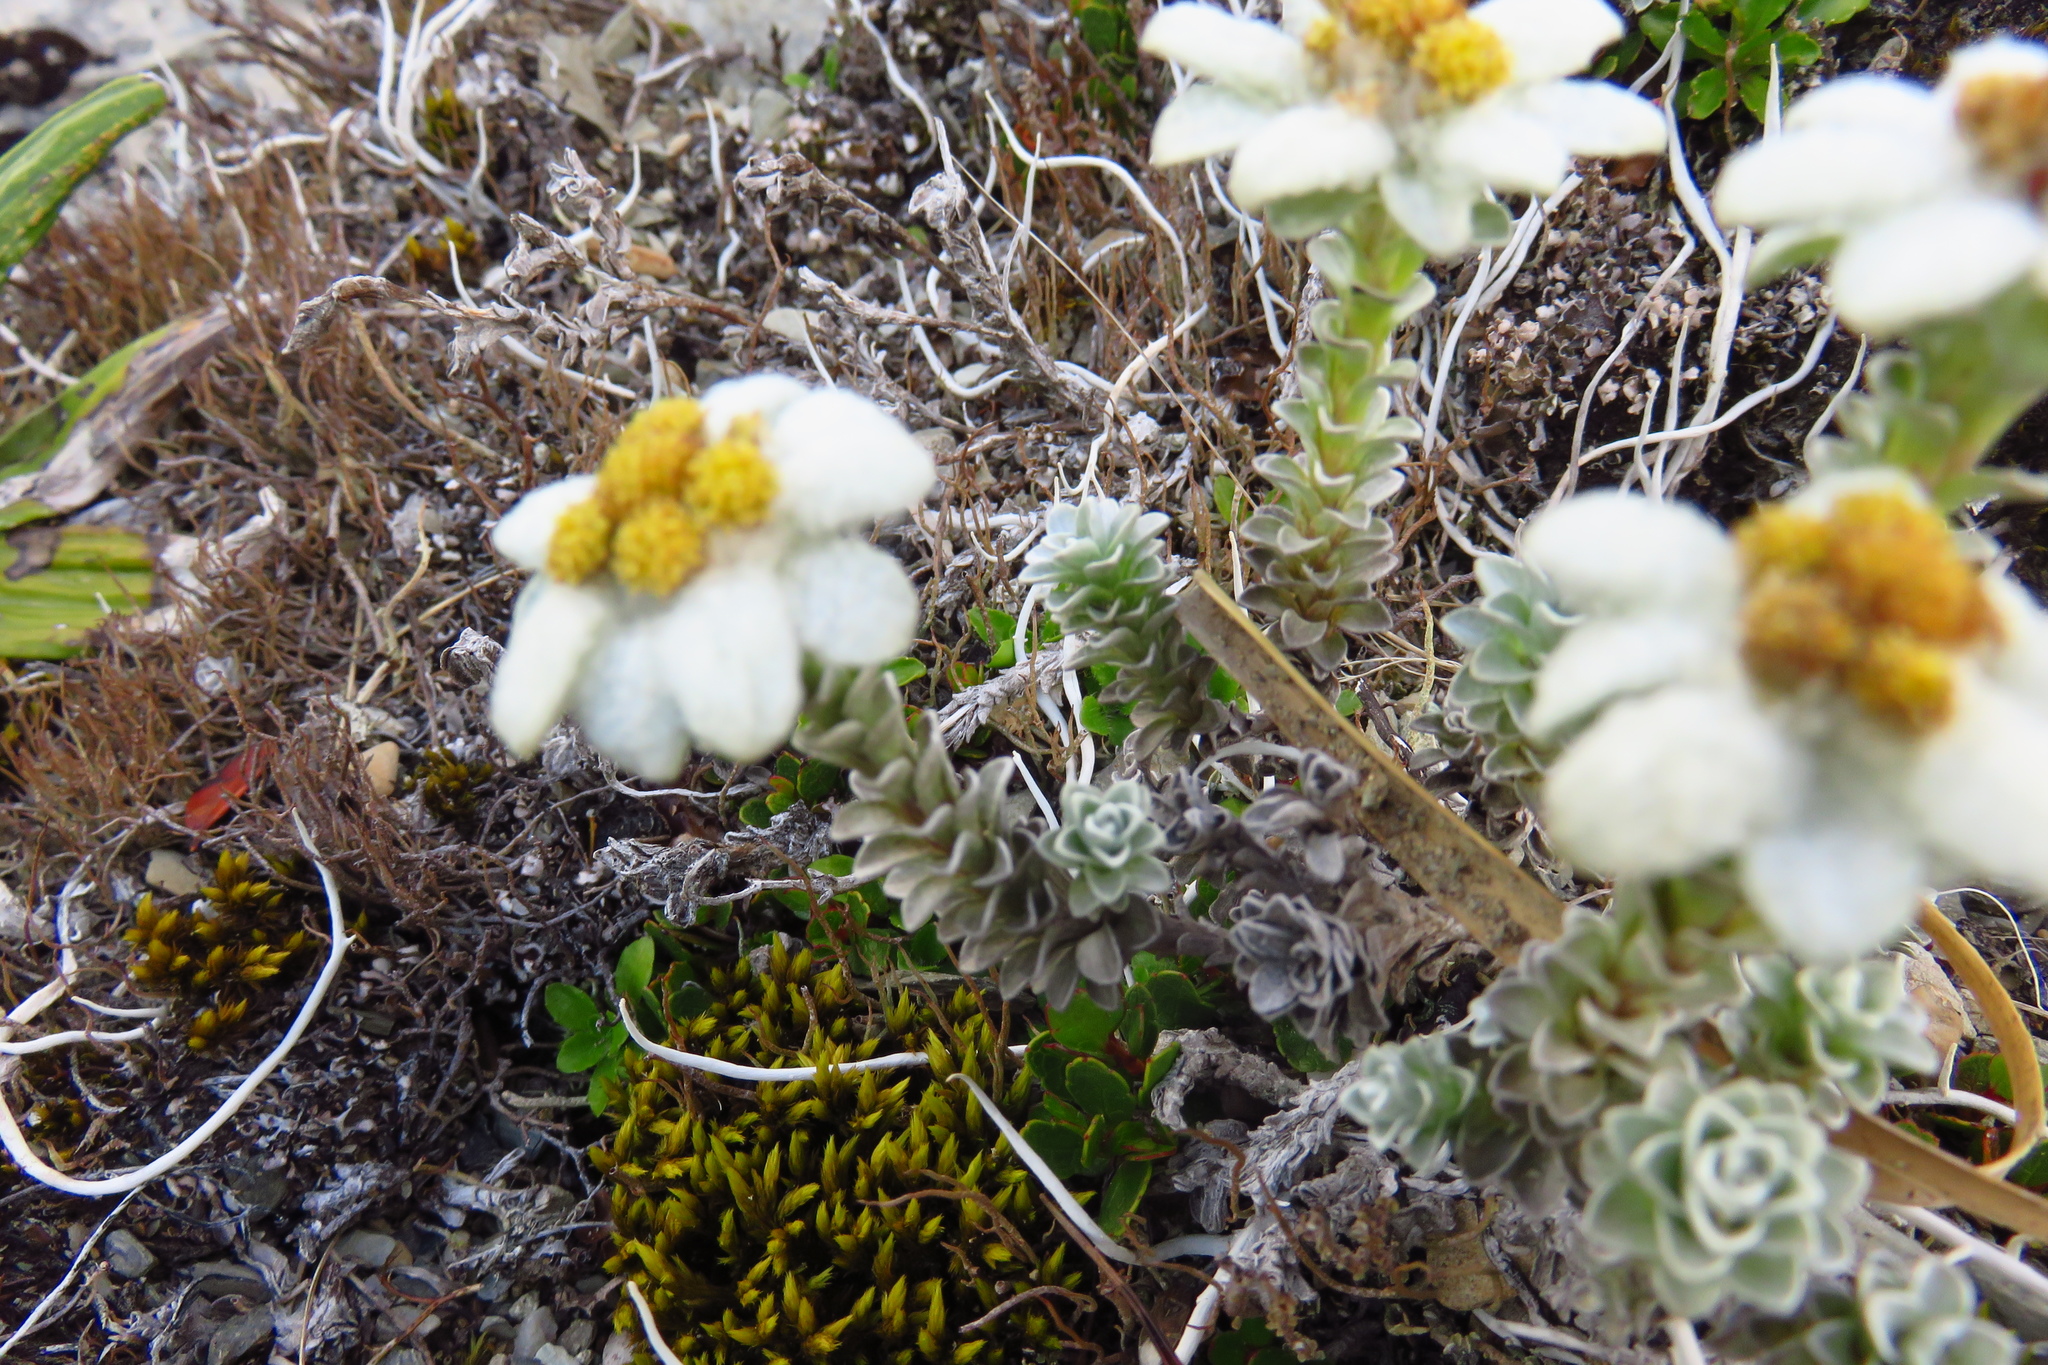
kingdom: Plantae
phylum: Tracheophyta
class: Magnoliopsida
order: Asterales
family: Asteraceae
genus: Leucogenes
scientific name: Leucogenes grandiceps
